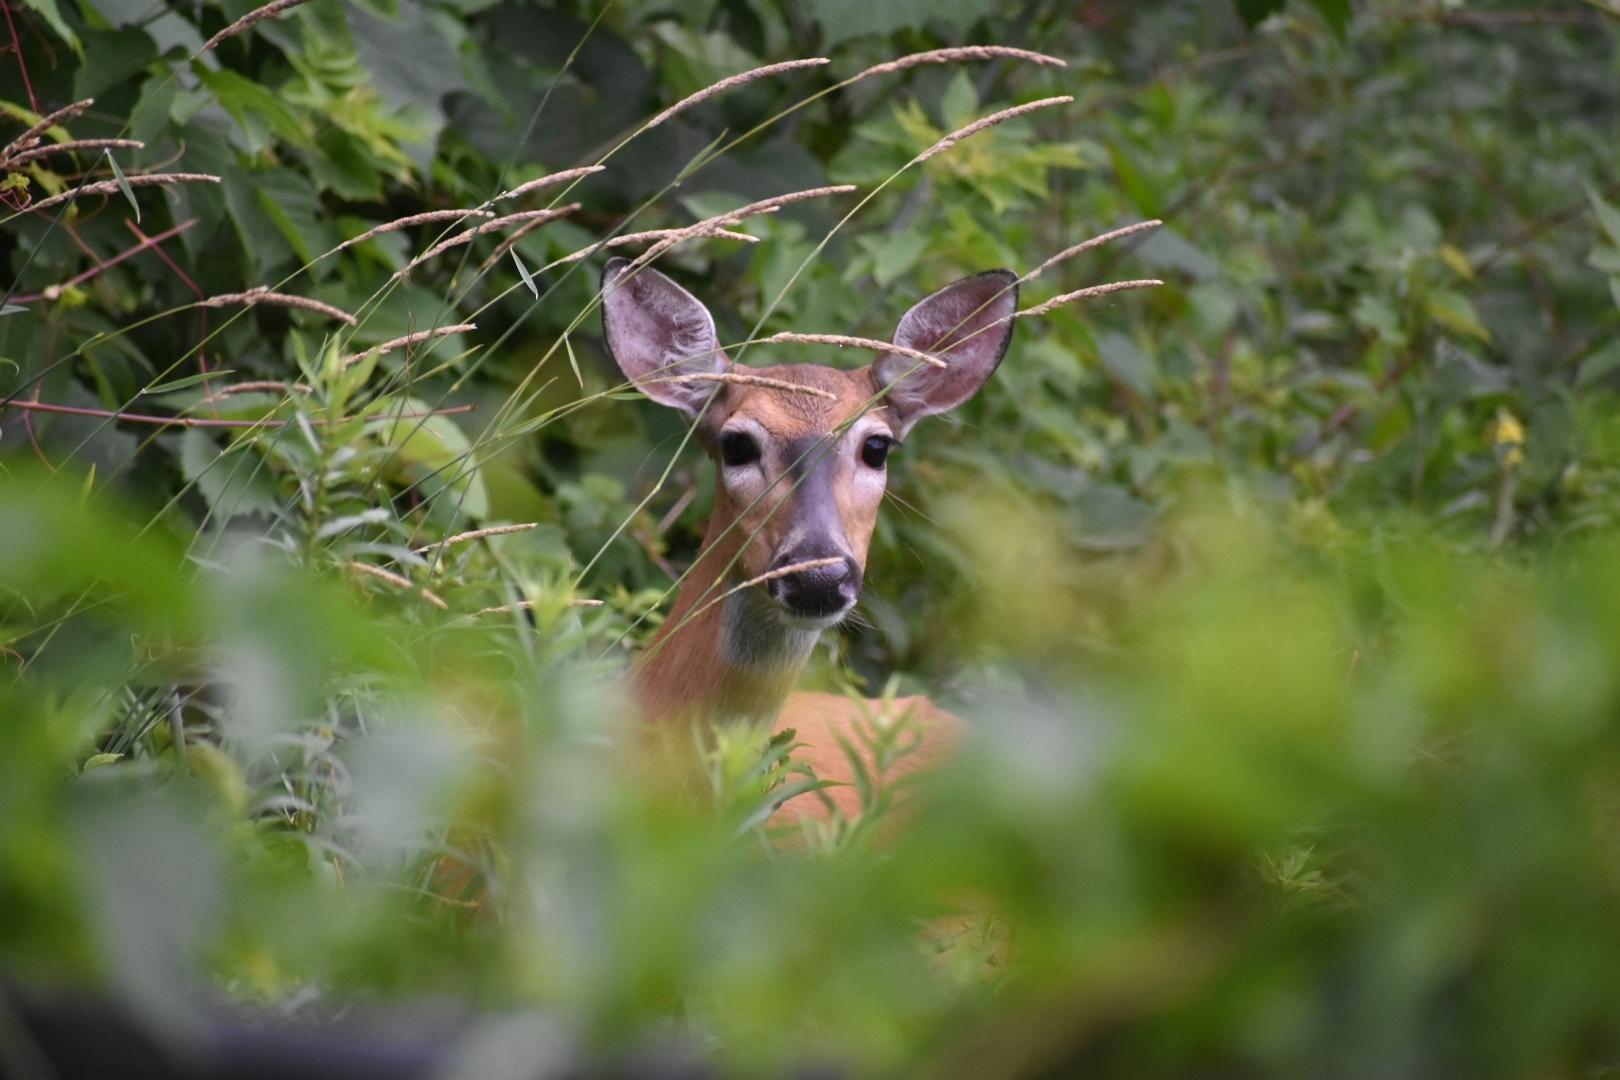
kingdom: Animalia
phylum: Chordata
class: Mammalia
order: Artiodactyla
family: Cervidae
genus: Odocoileus
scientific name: Odocoileus virginianus
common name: White-tailed deer
